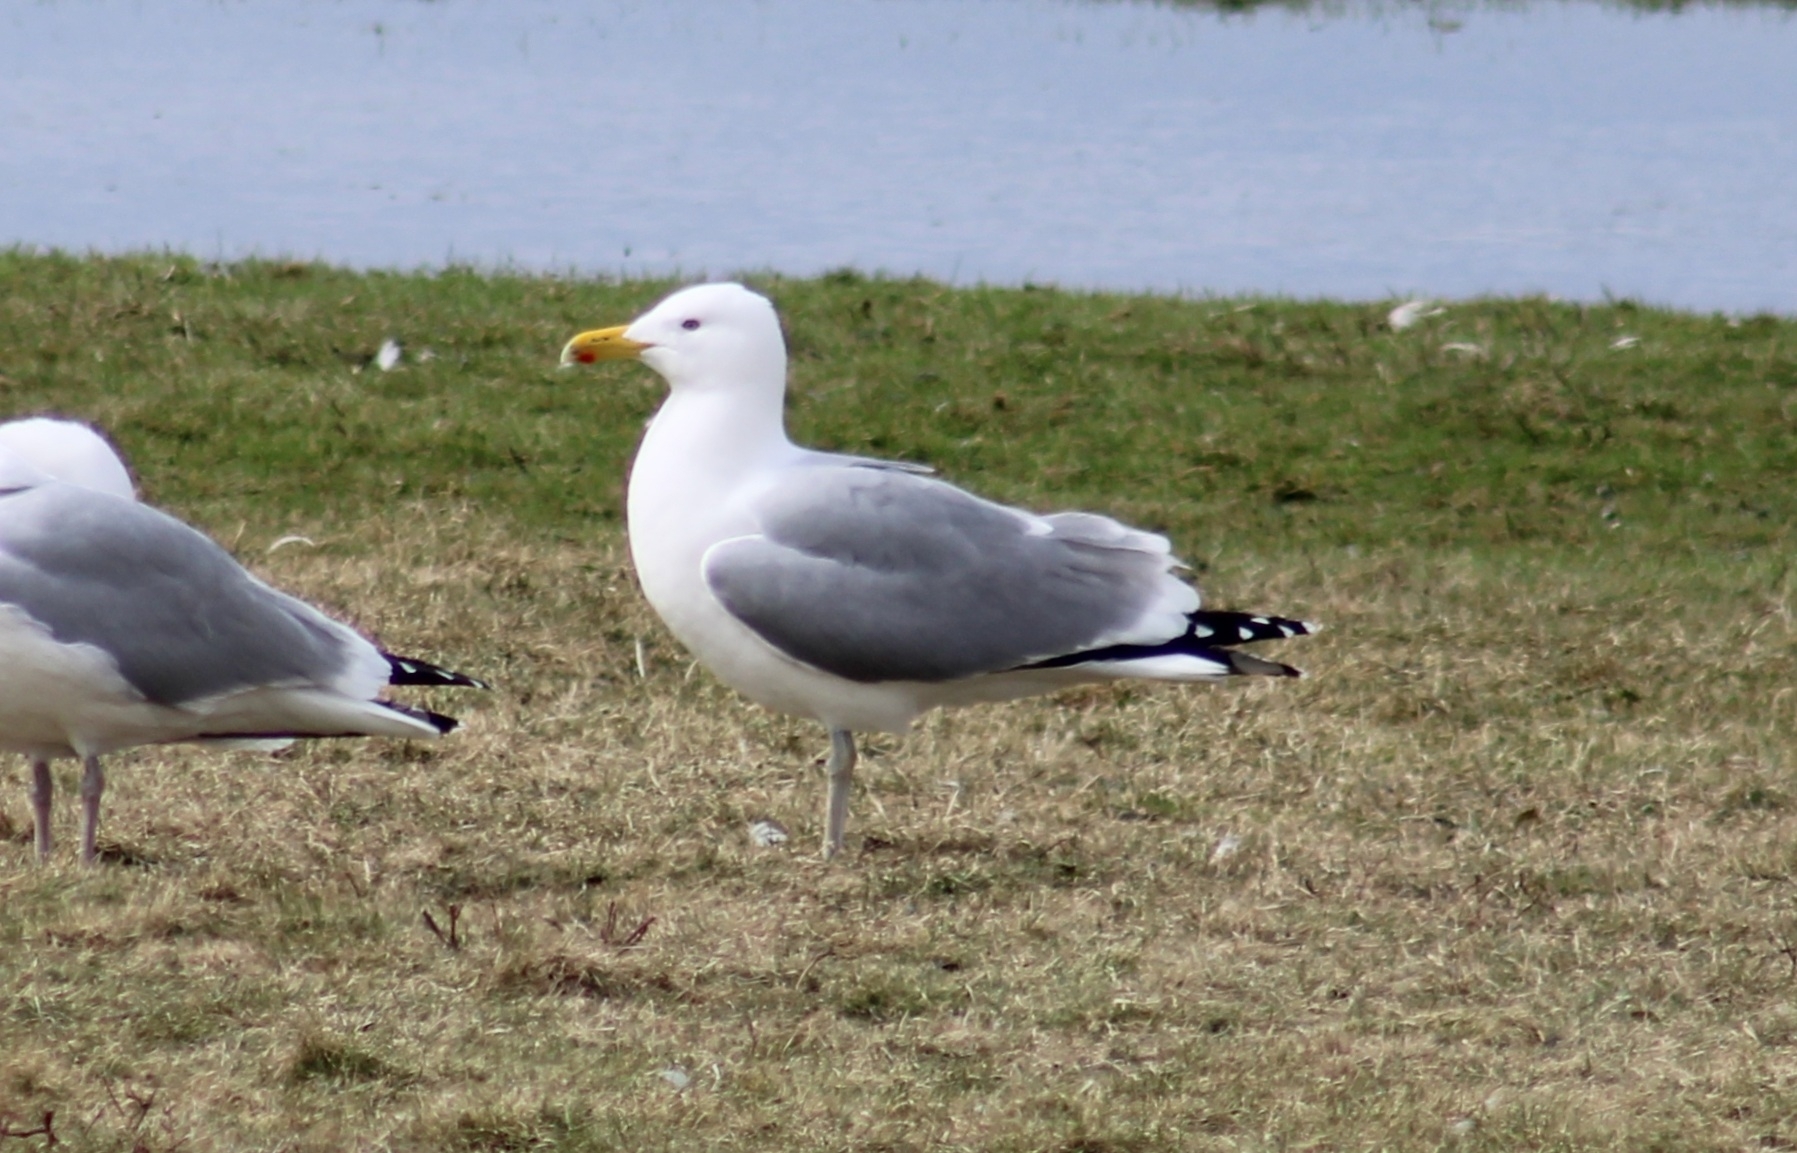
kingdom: Animalia
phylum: Chordata
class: Aves
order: Charadriiformes
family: Laridae
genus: Larus
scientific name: Larus argentatus
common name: Herring gull
